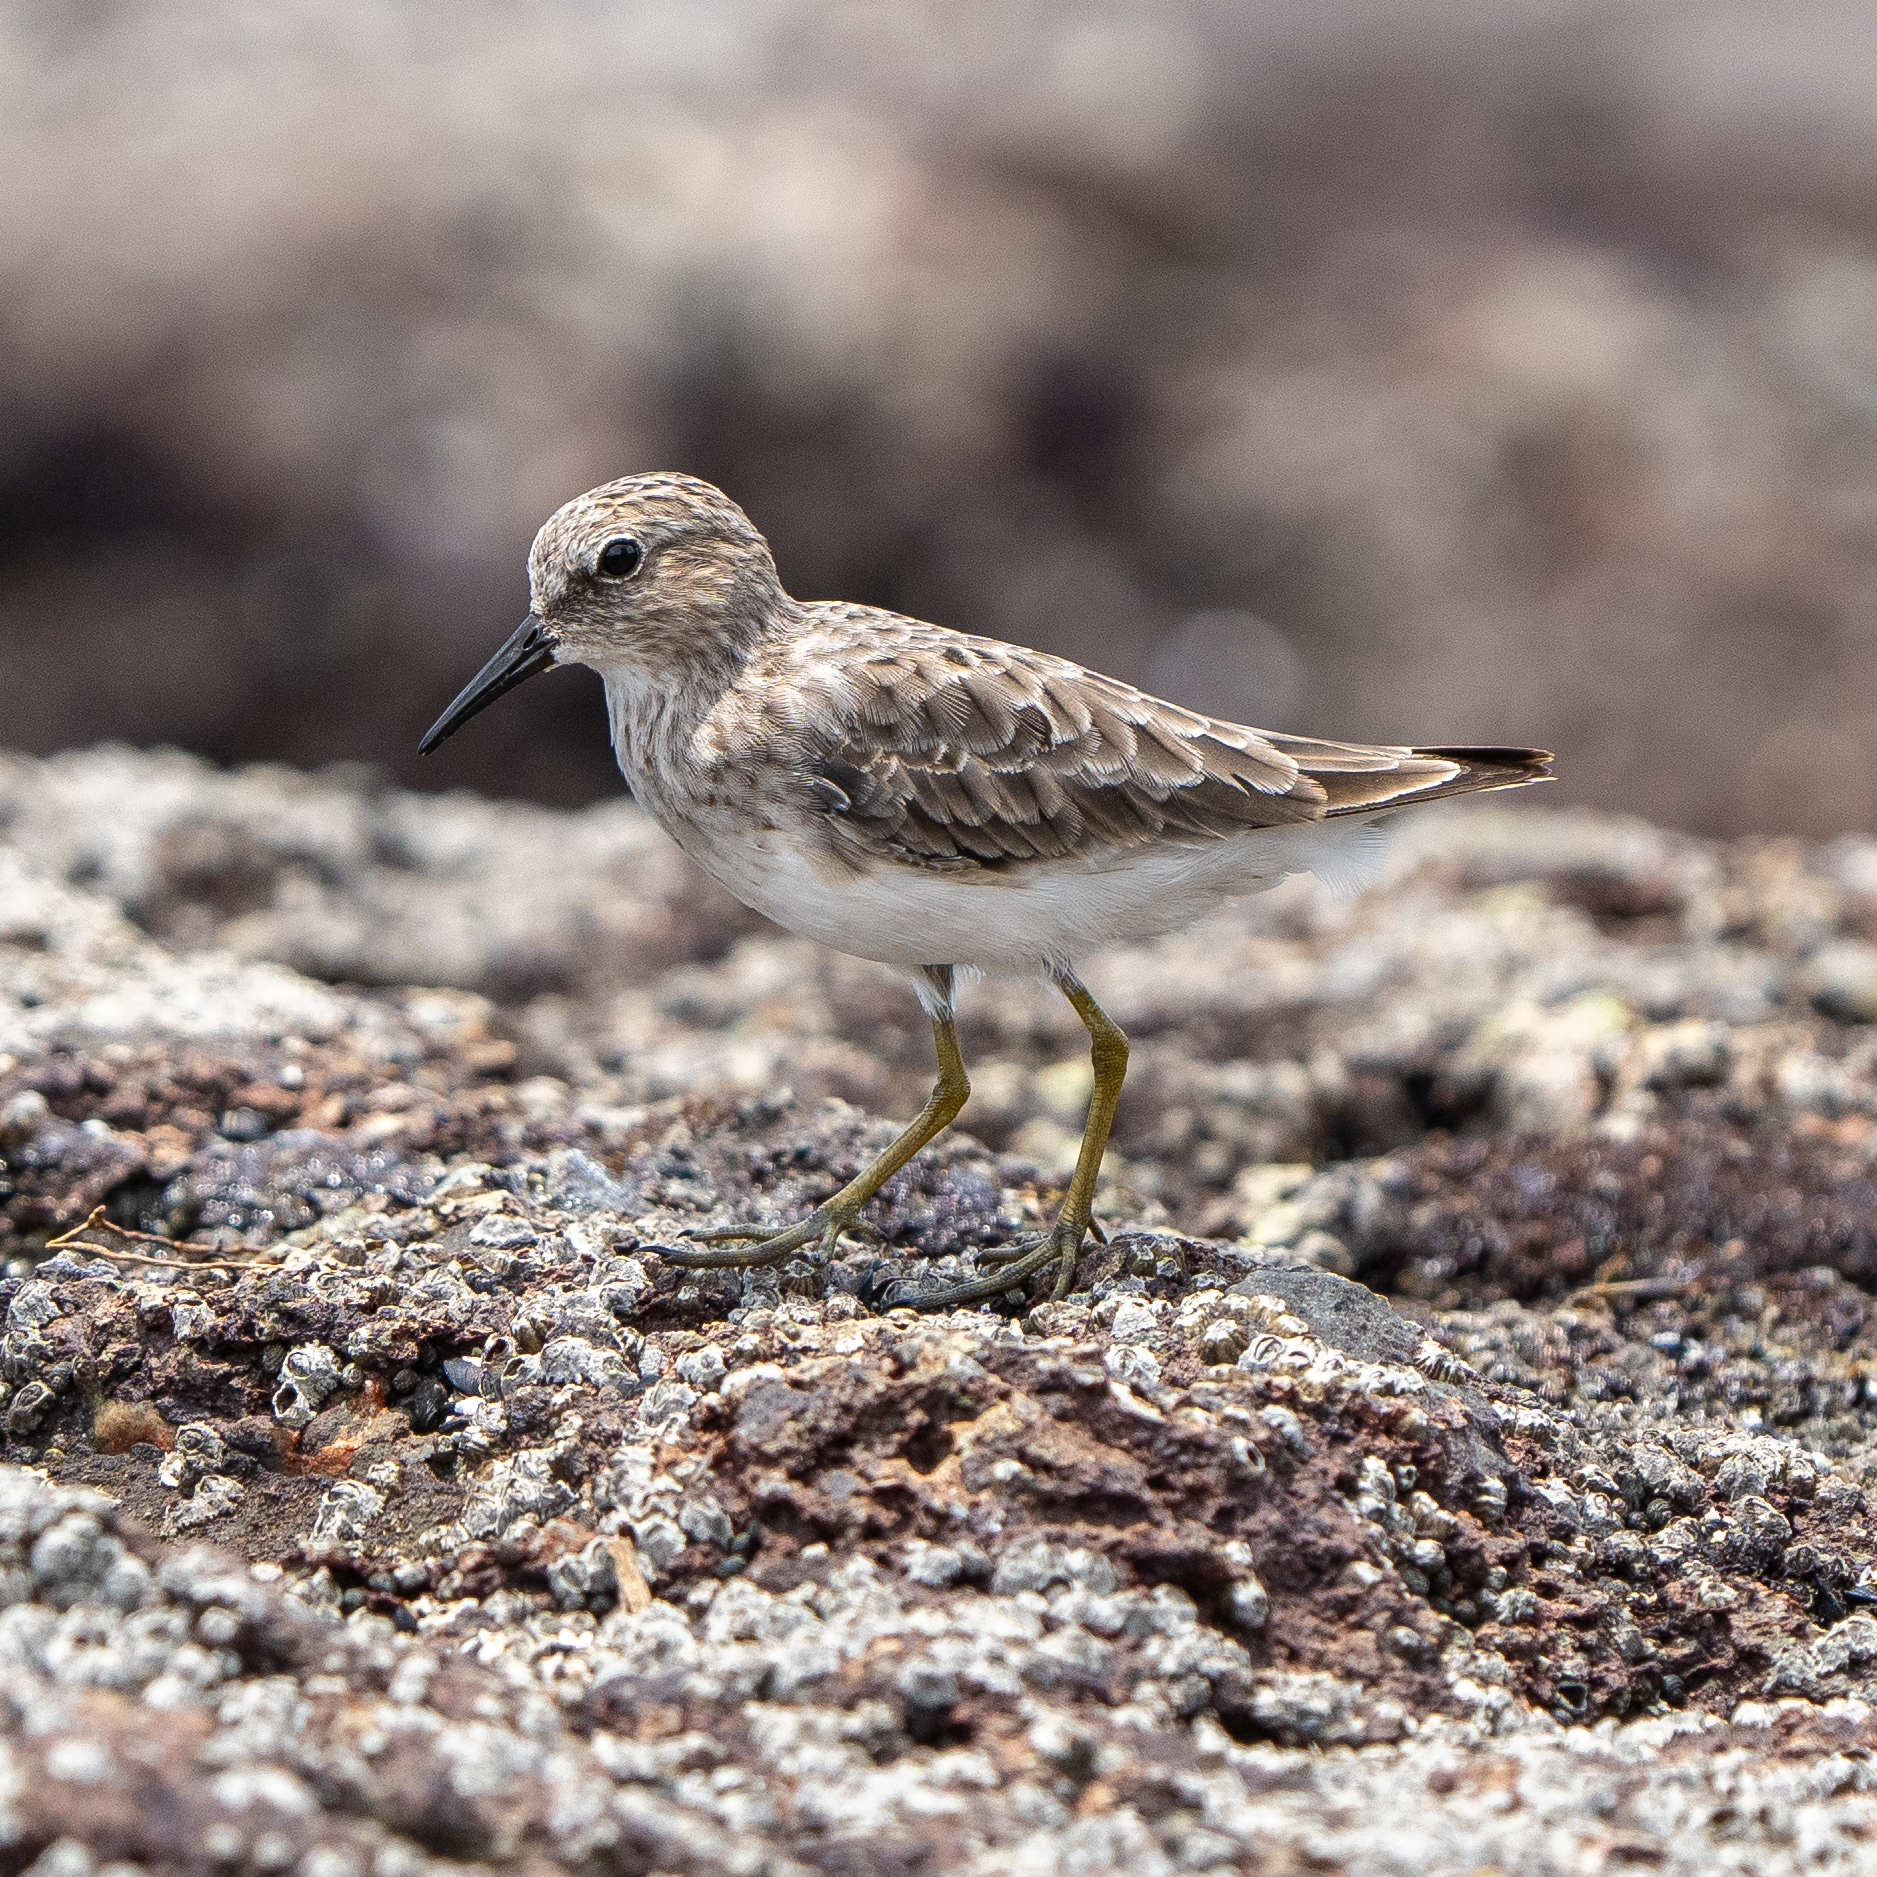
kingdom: Animalia
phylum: Chordata
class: Aves
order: Charadriiformes
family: Scolopacidae
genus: Calidris
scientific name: Calidris minutilla
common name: Least sandpiper
